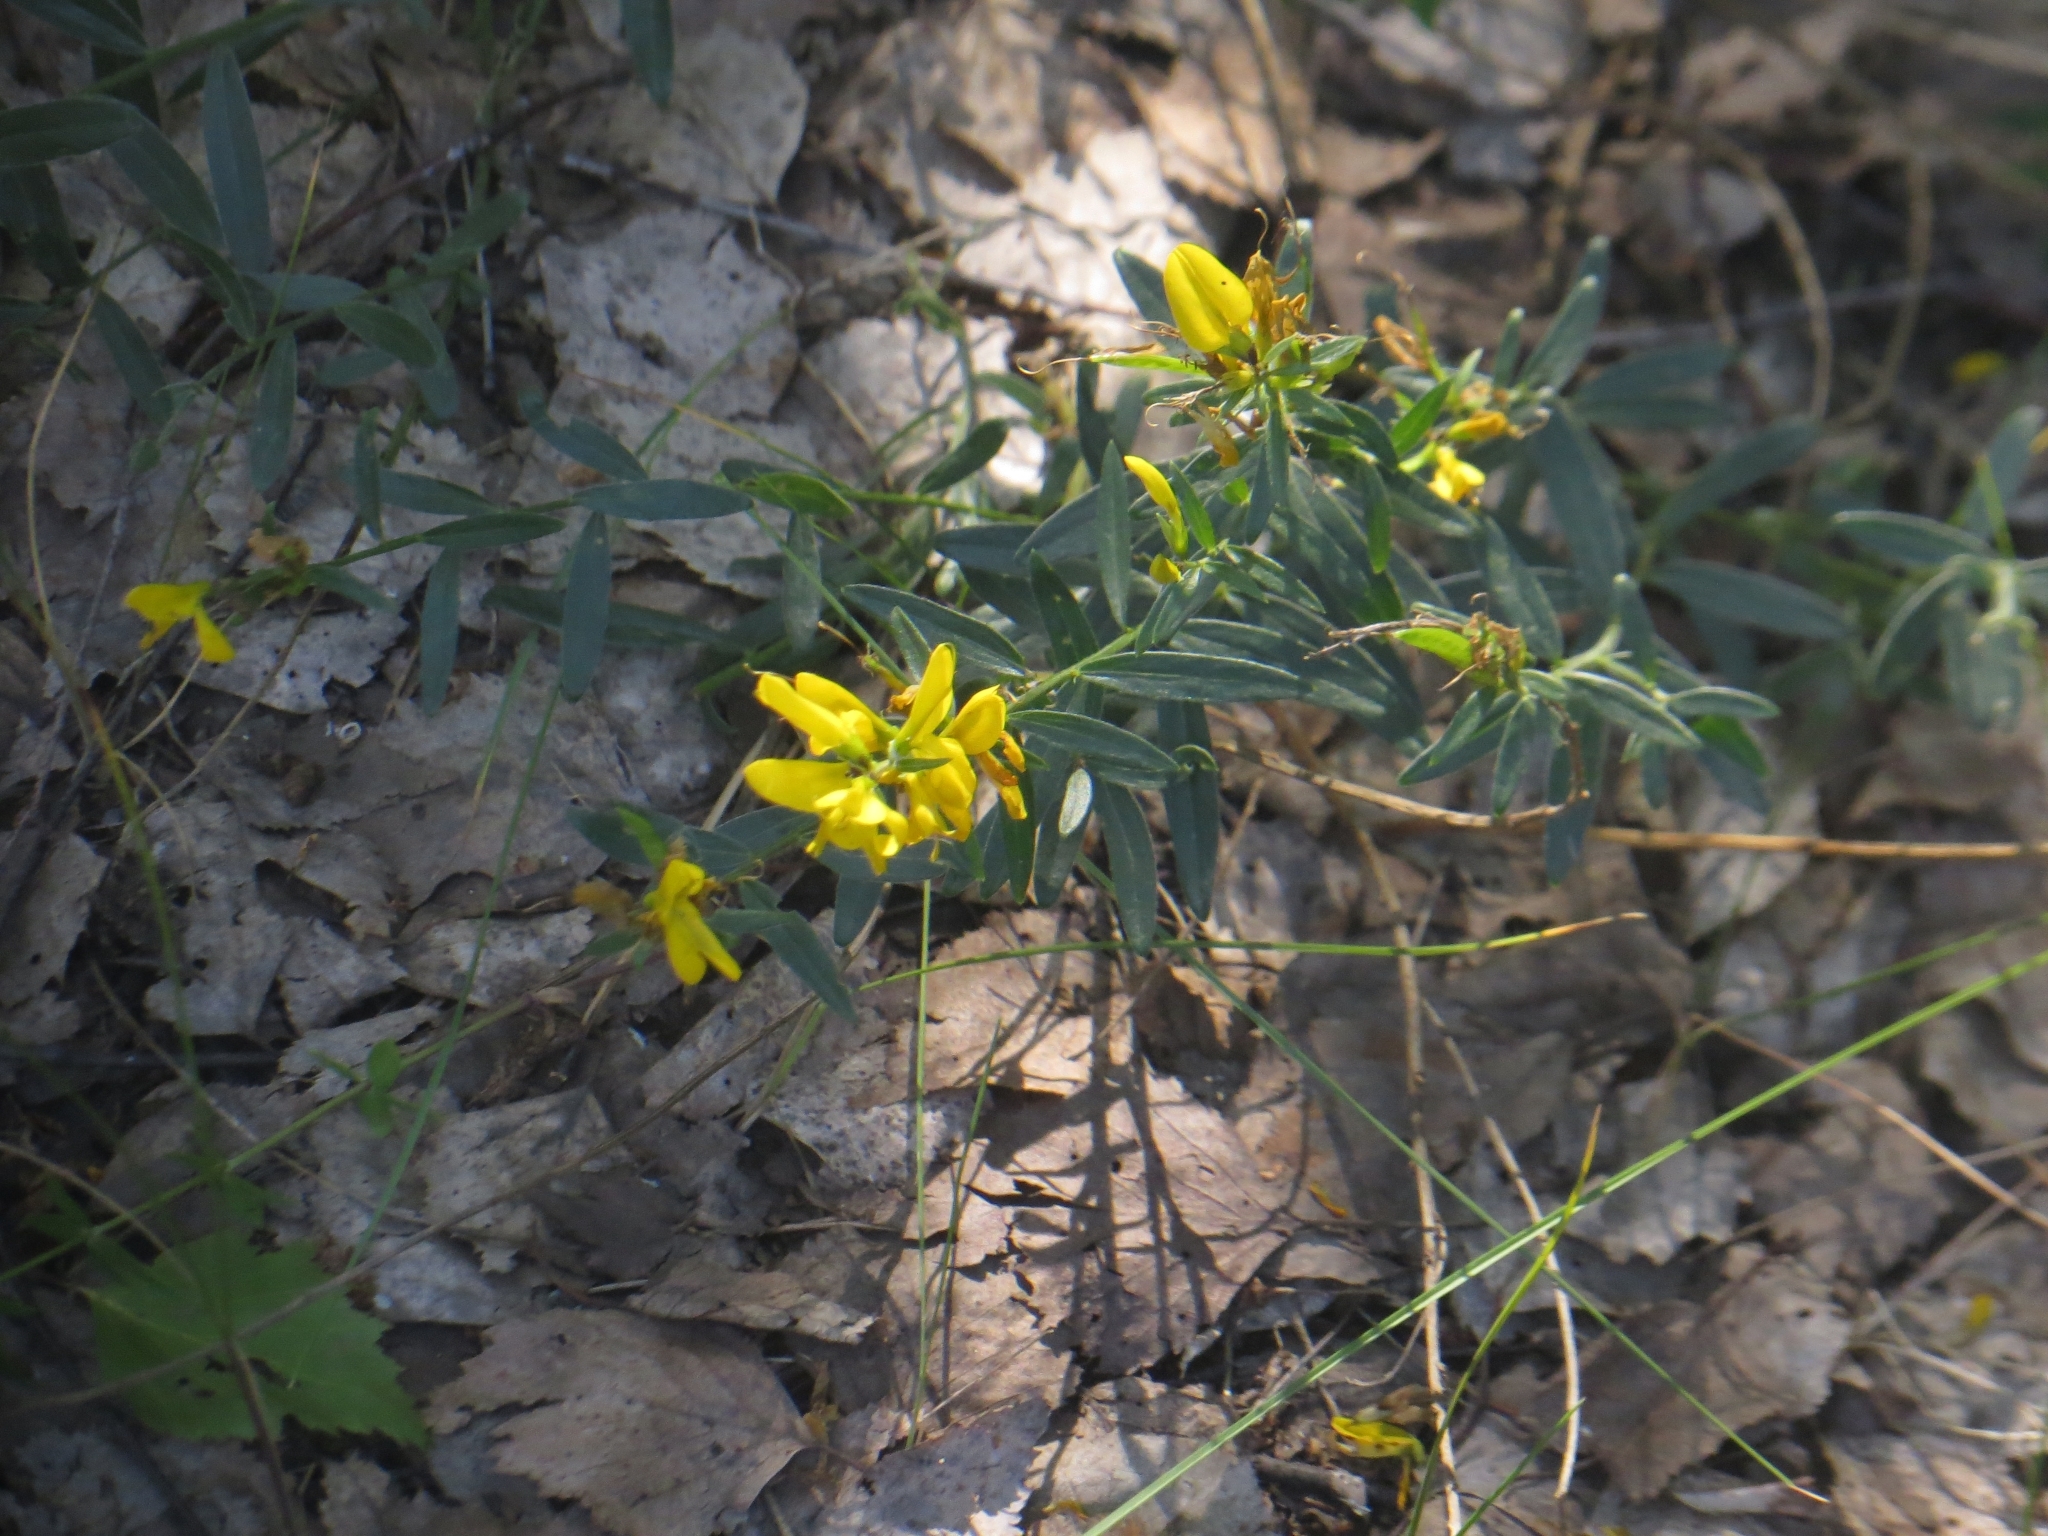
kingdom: Plantae
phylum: Tracheophyta
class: Magnoliopsida
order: Fabales
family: Fabaceae
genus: Genista
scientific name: Genista tinctoria
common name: Dyer's greenweed
